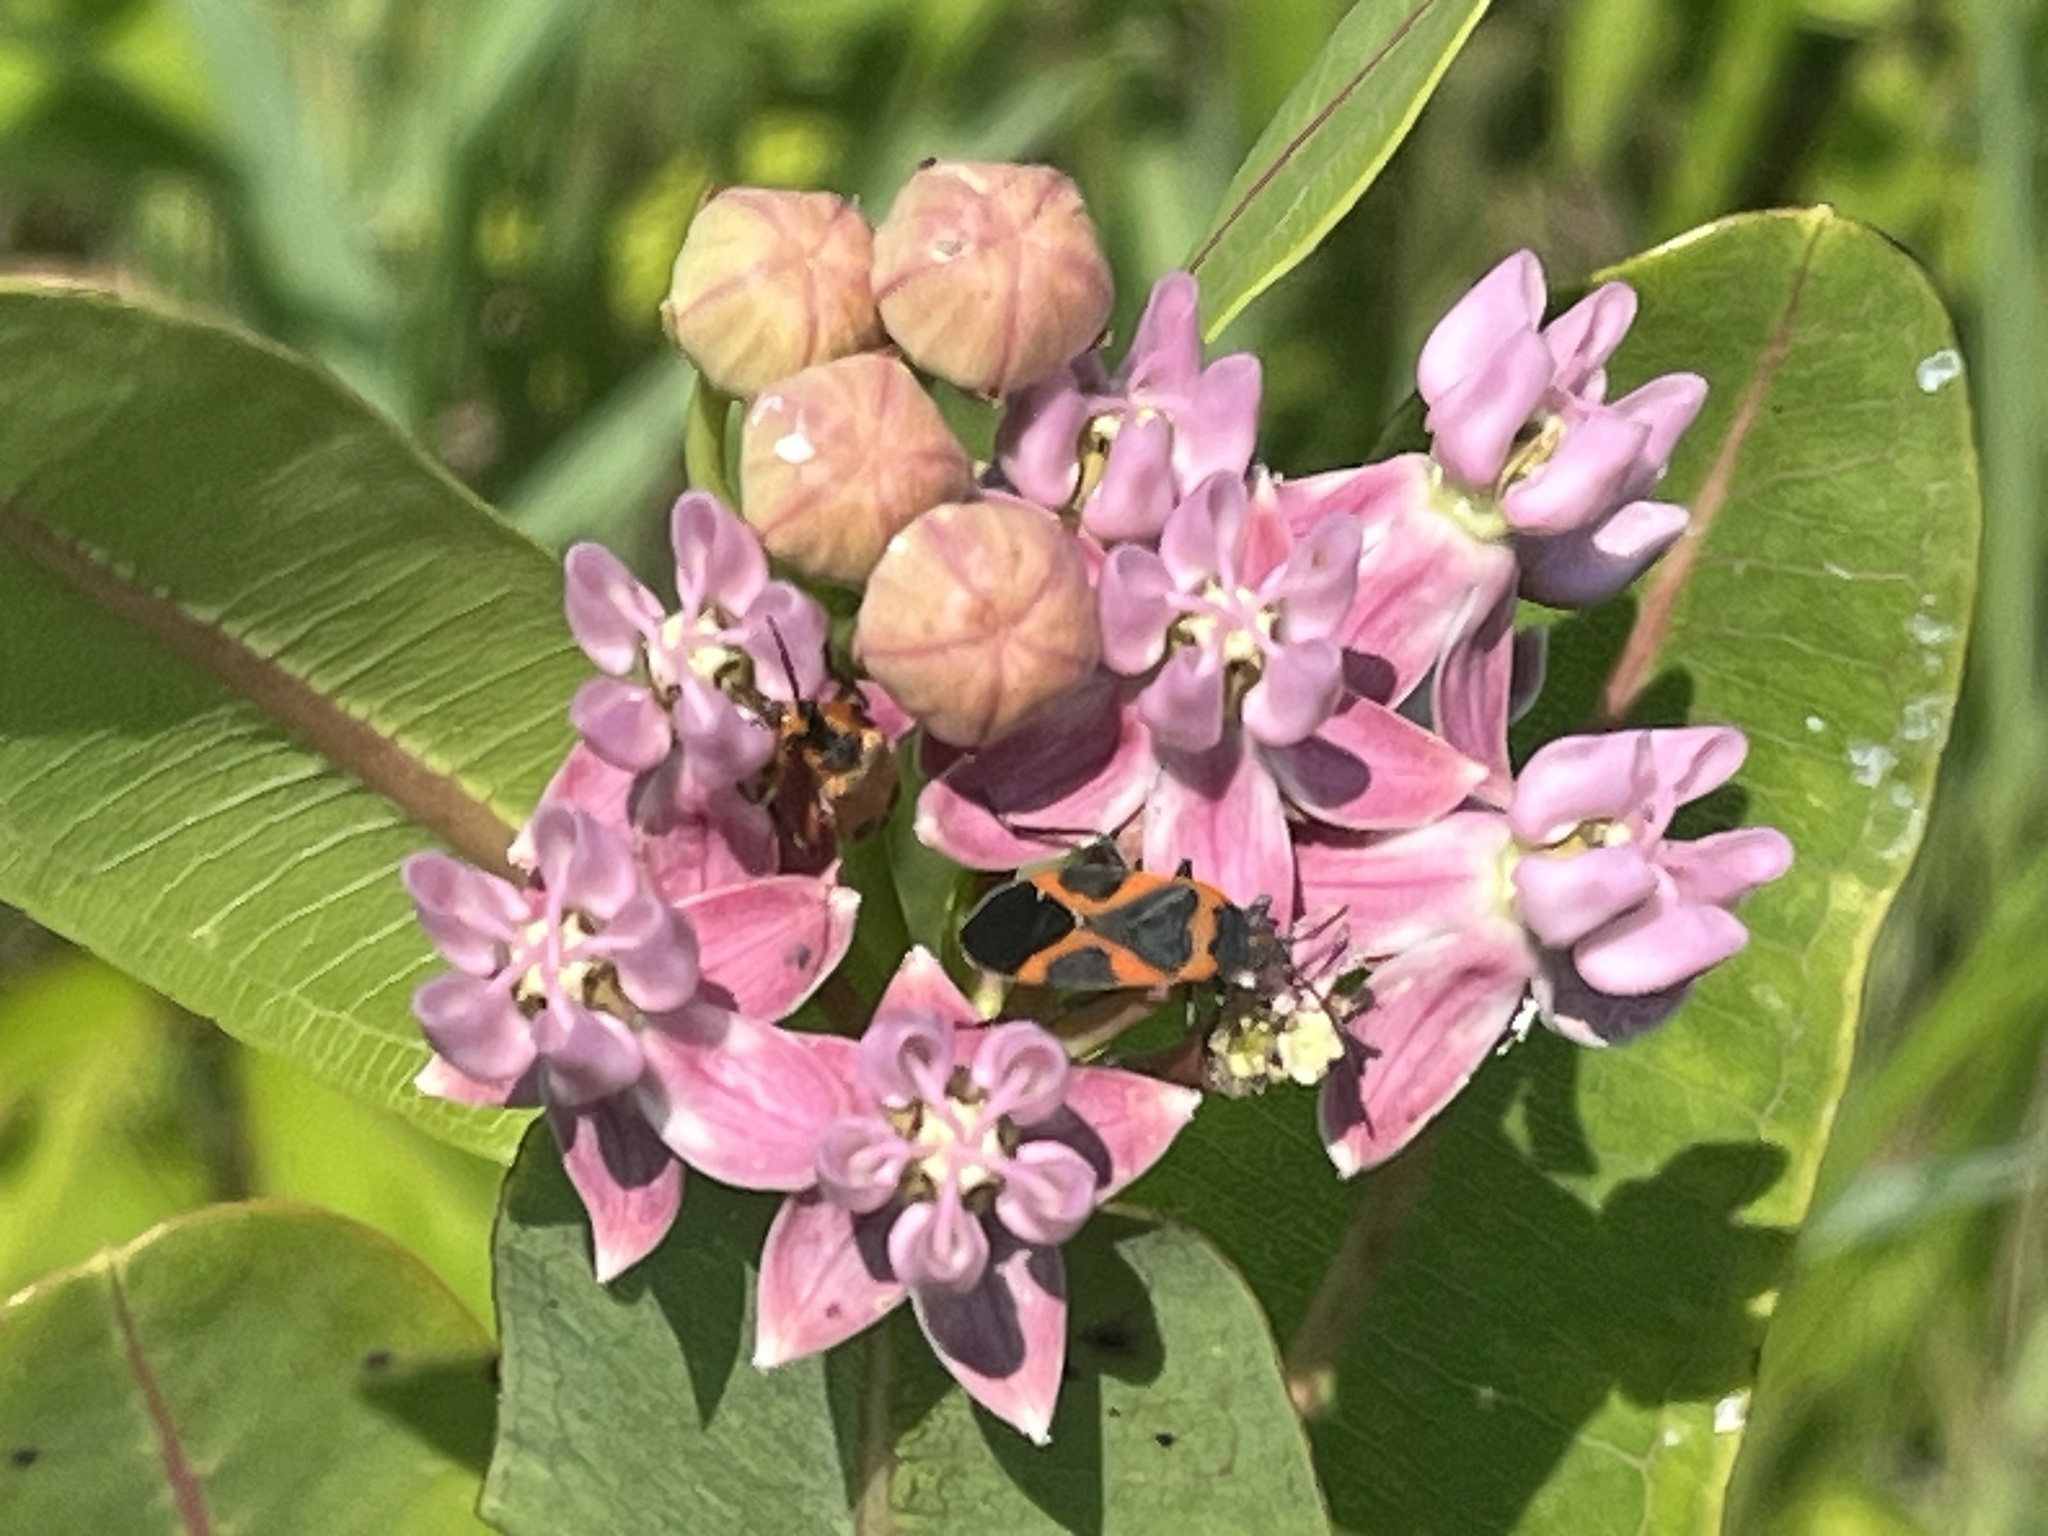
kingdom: Animalia
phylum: Arthropoda
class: Insecta
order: Hemiptera
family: Lygaeidae
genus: Lygaeus
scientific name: Lygaeus kalmii
